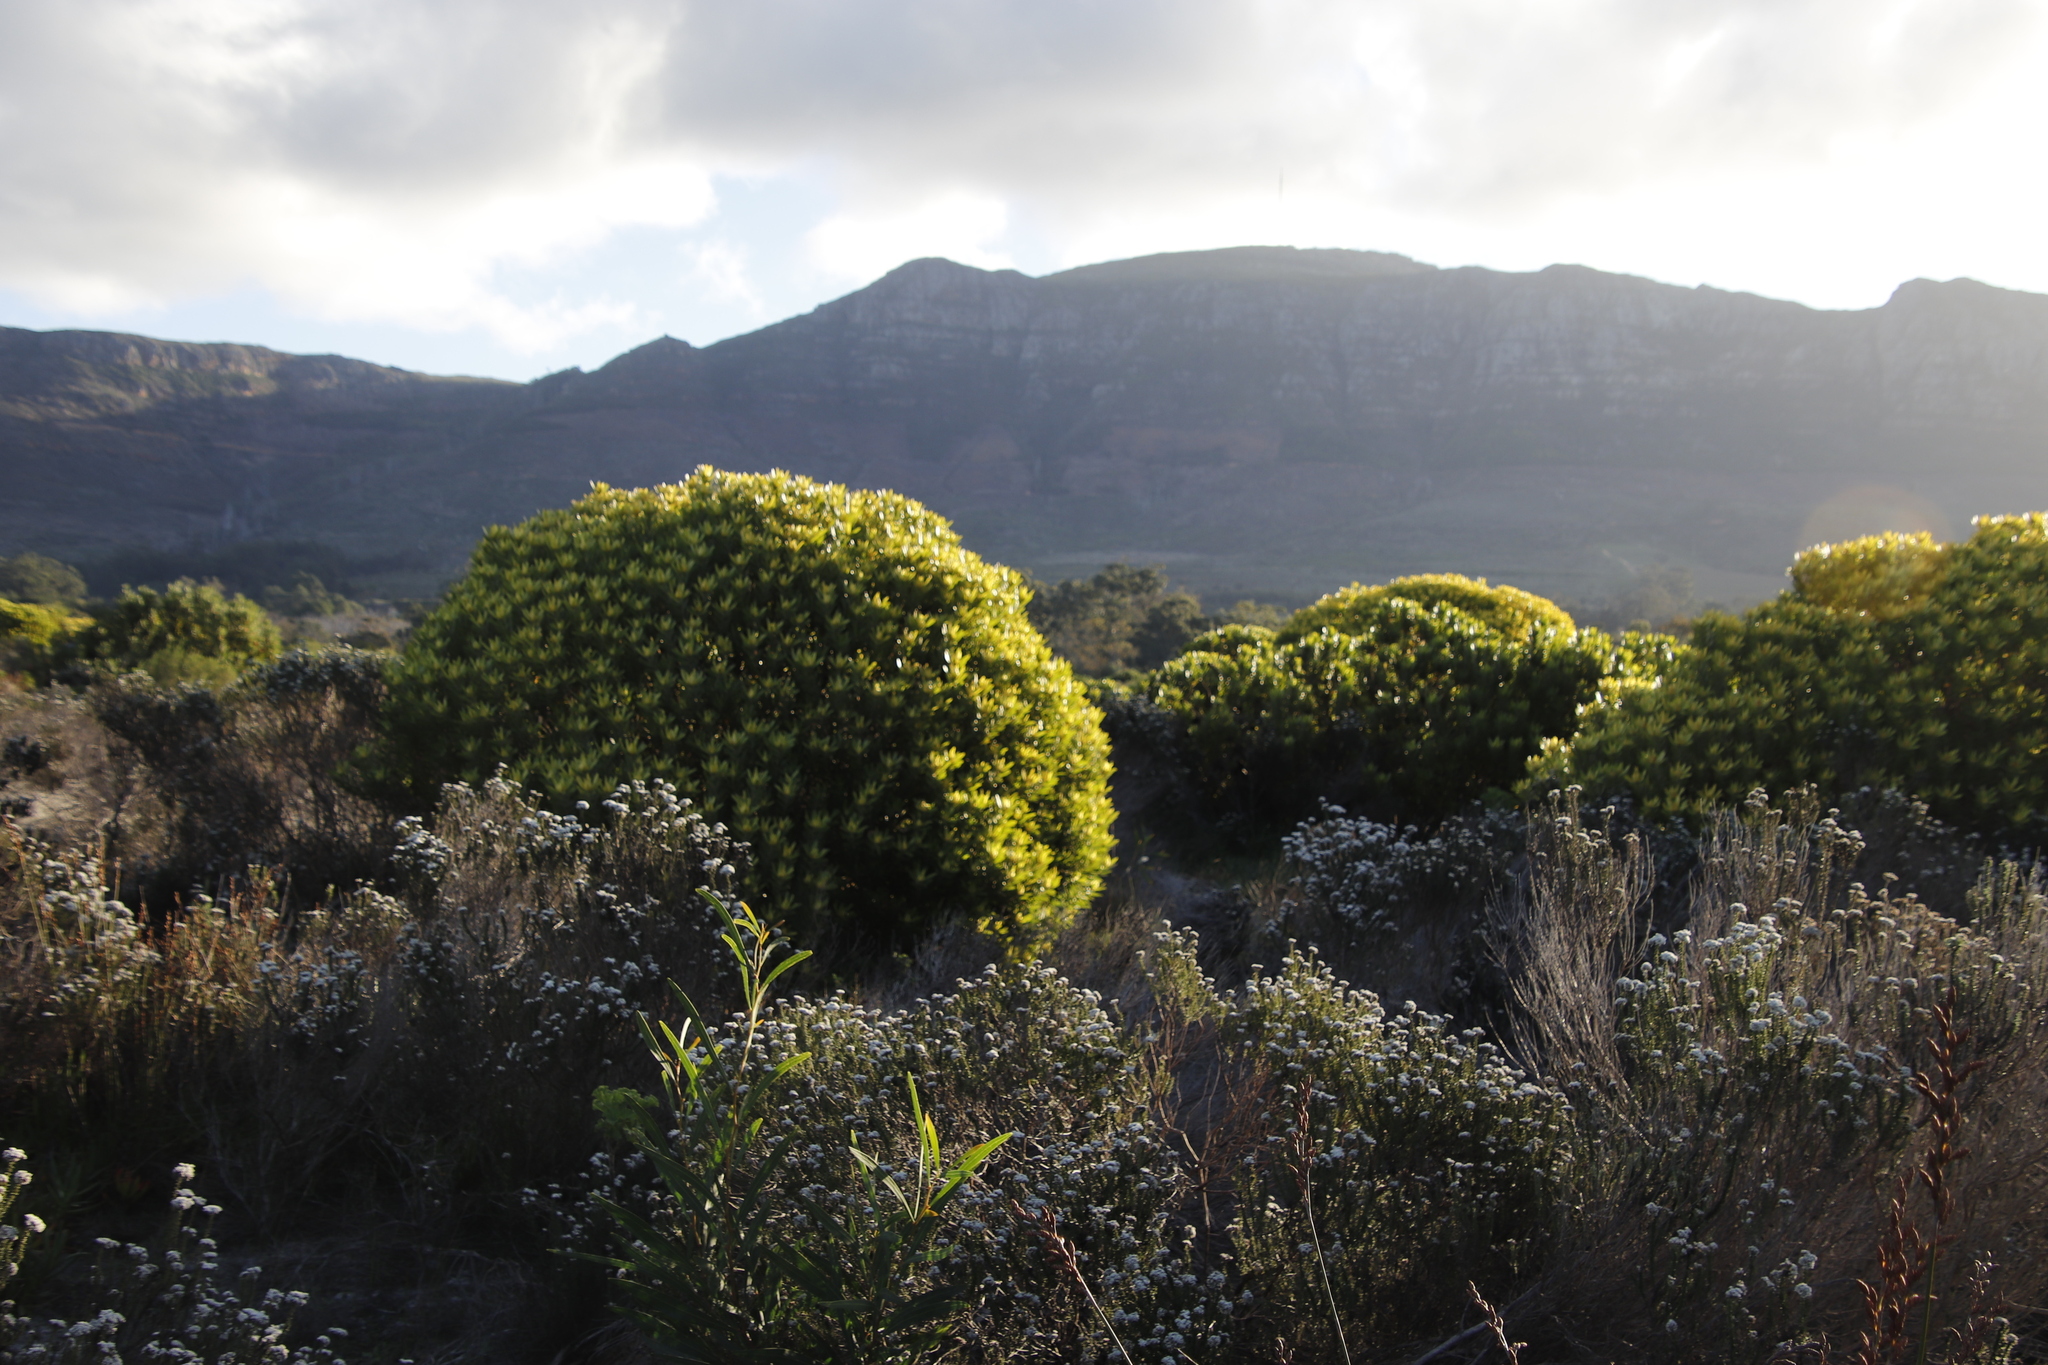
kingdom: Plantae
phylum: Tracheophyta
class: Magnoliopsida
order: Asterales
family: Asteraceae
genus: Metalasia
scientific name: Metalasia densa
